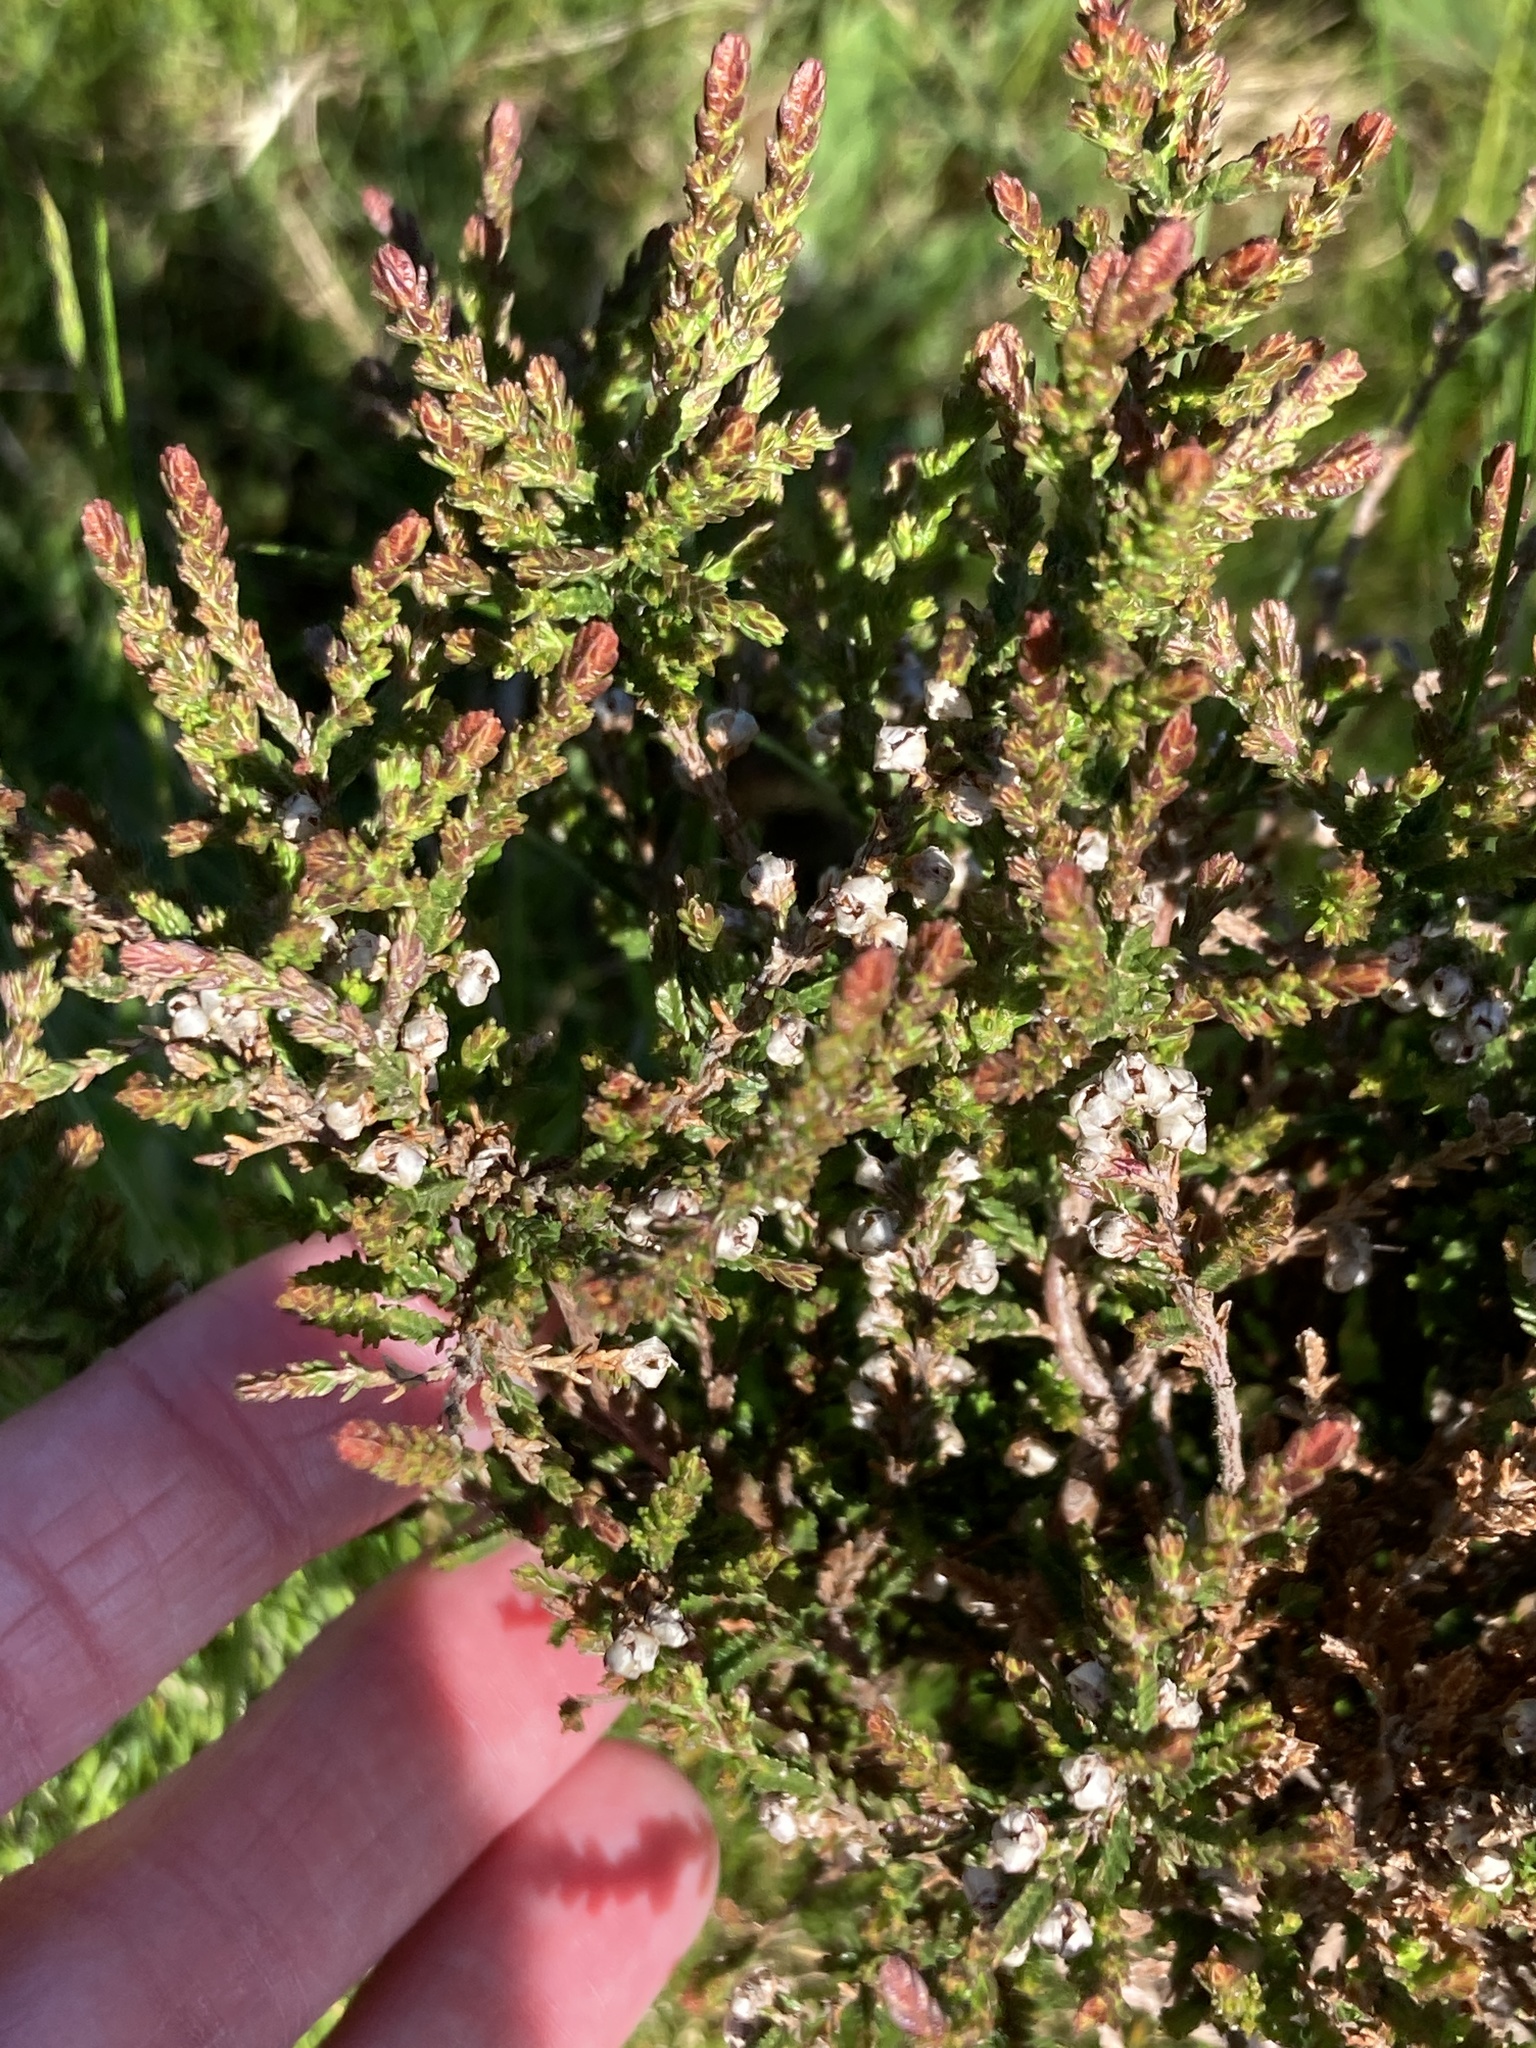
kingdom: Plantae
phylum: Tracheophyta
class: Magnoliopsida
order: Ericales
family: Ericaceae
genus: Calluna
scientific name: Calluna vulgaris
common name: Heather
